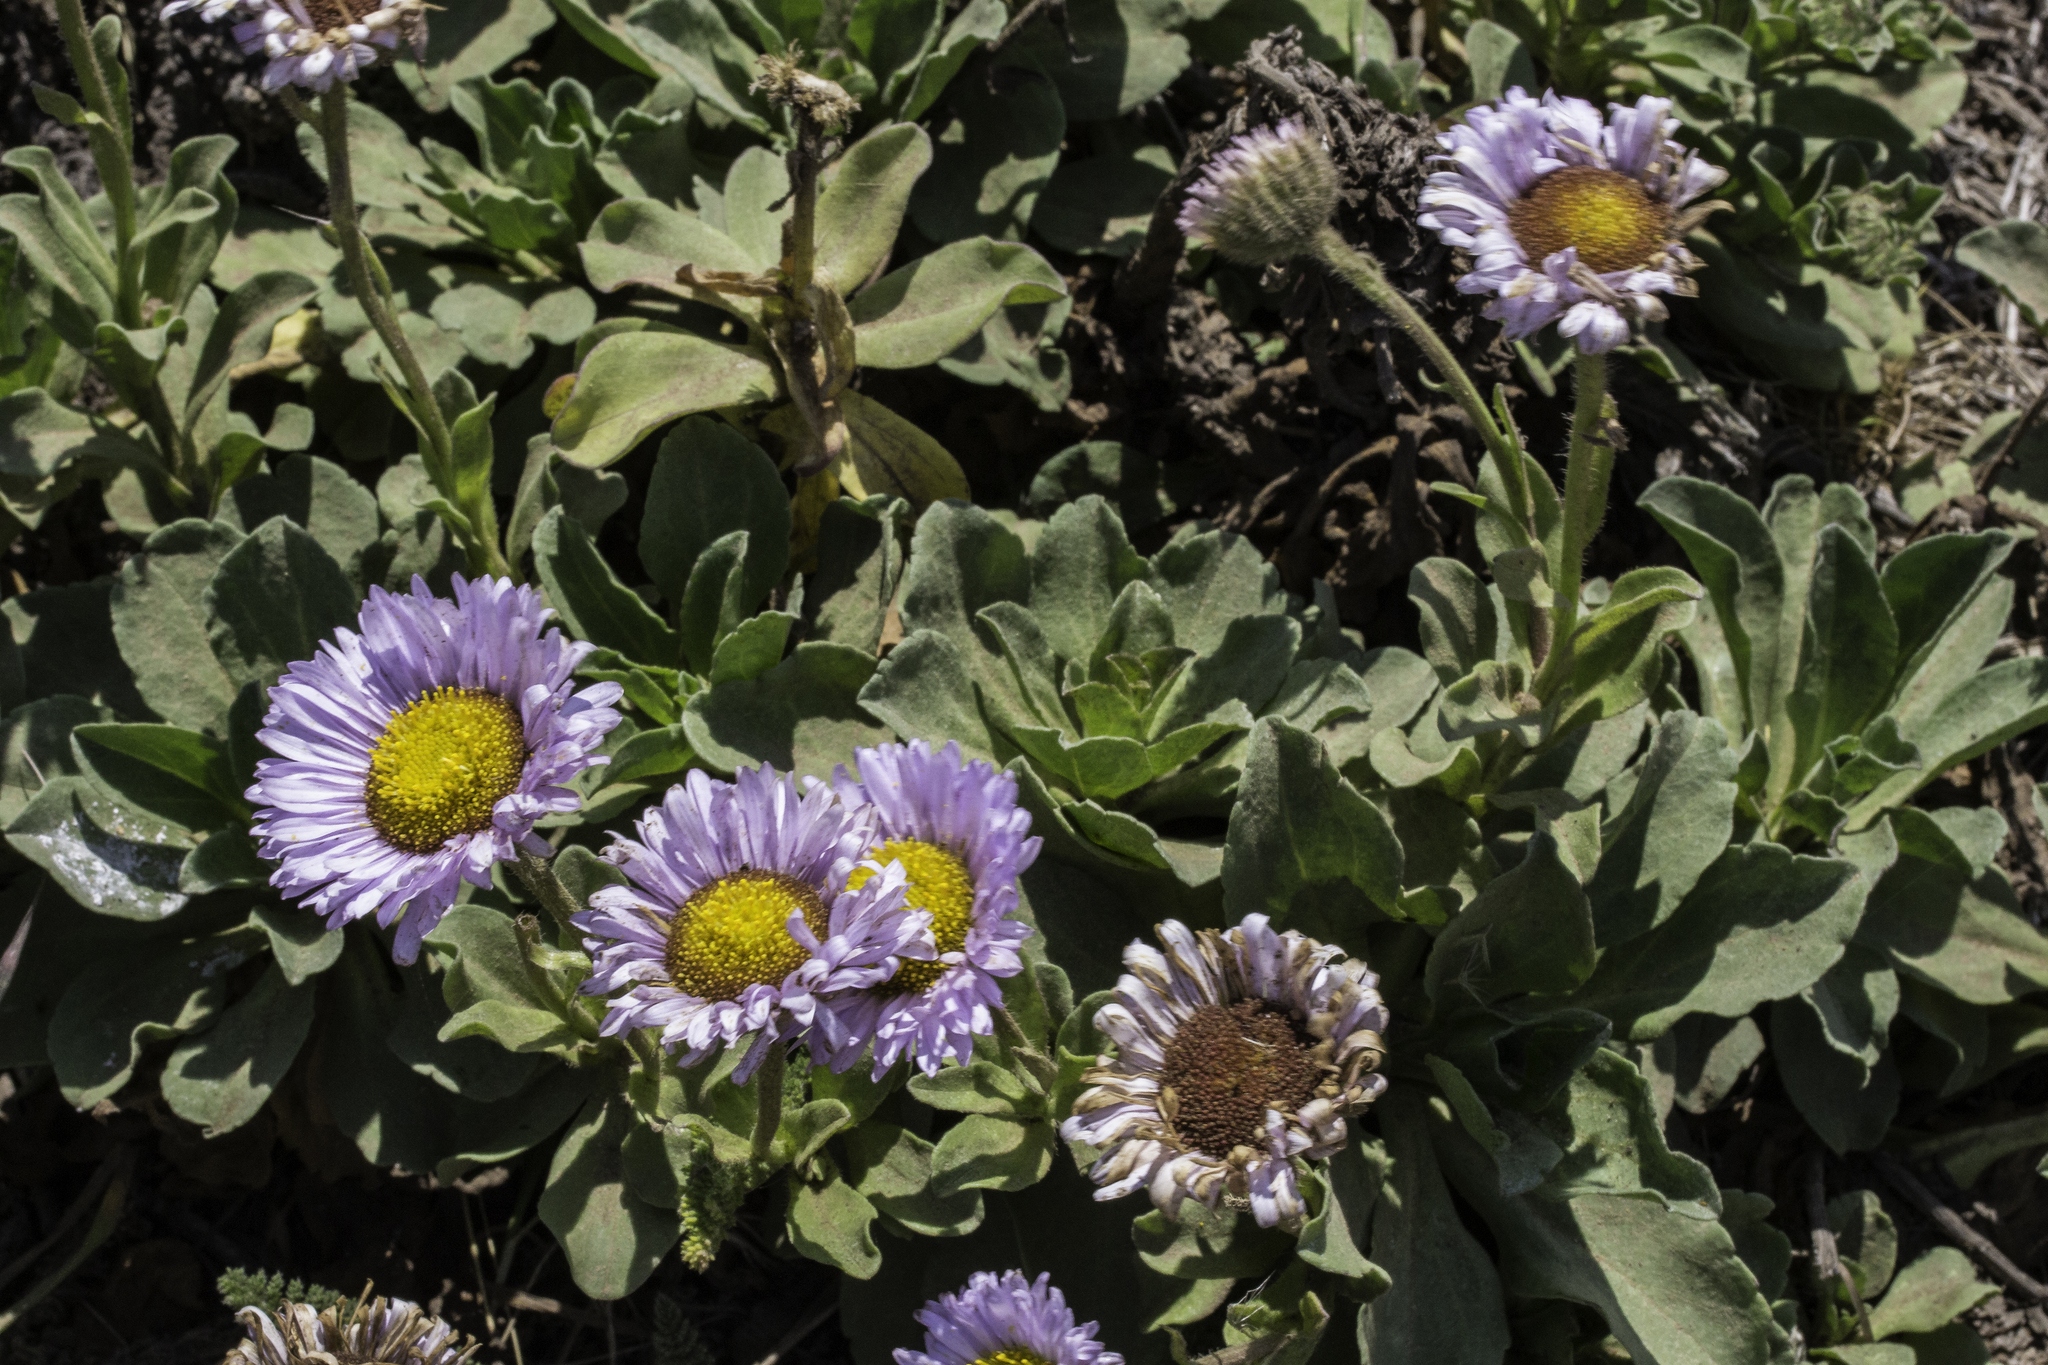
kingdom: Plantae
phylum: Tracheophyta
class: Magnoliopsida
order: Asterales
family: Asteraceae
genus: Erigeron
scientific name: Erigeron glaucus
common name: Seaside daisy
